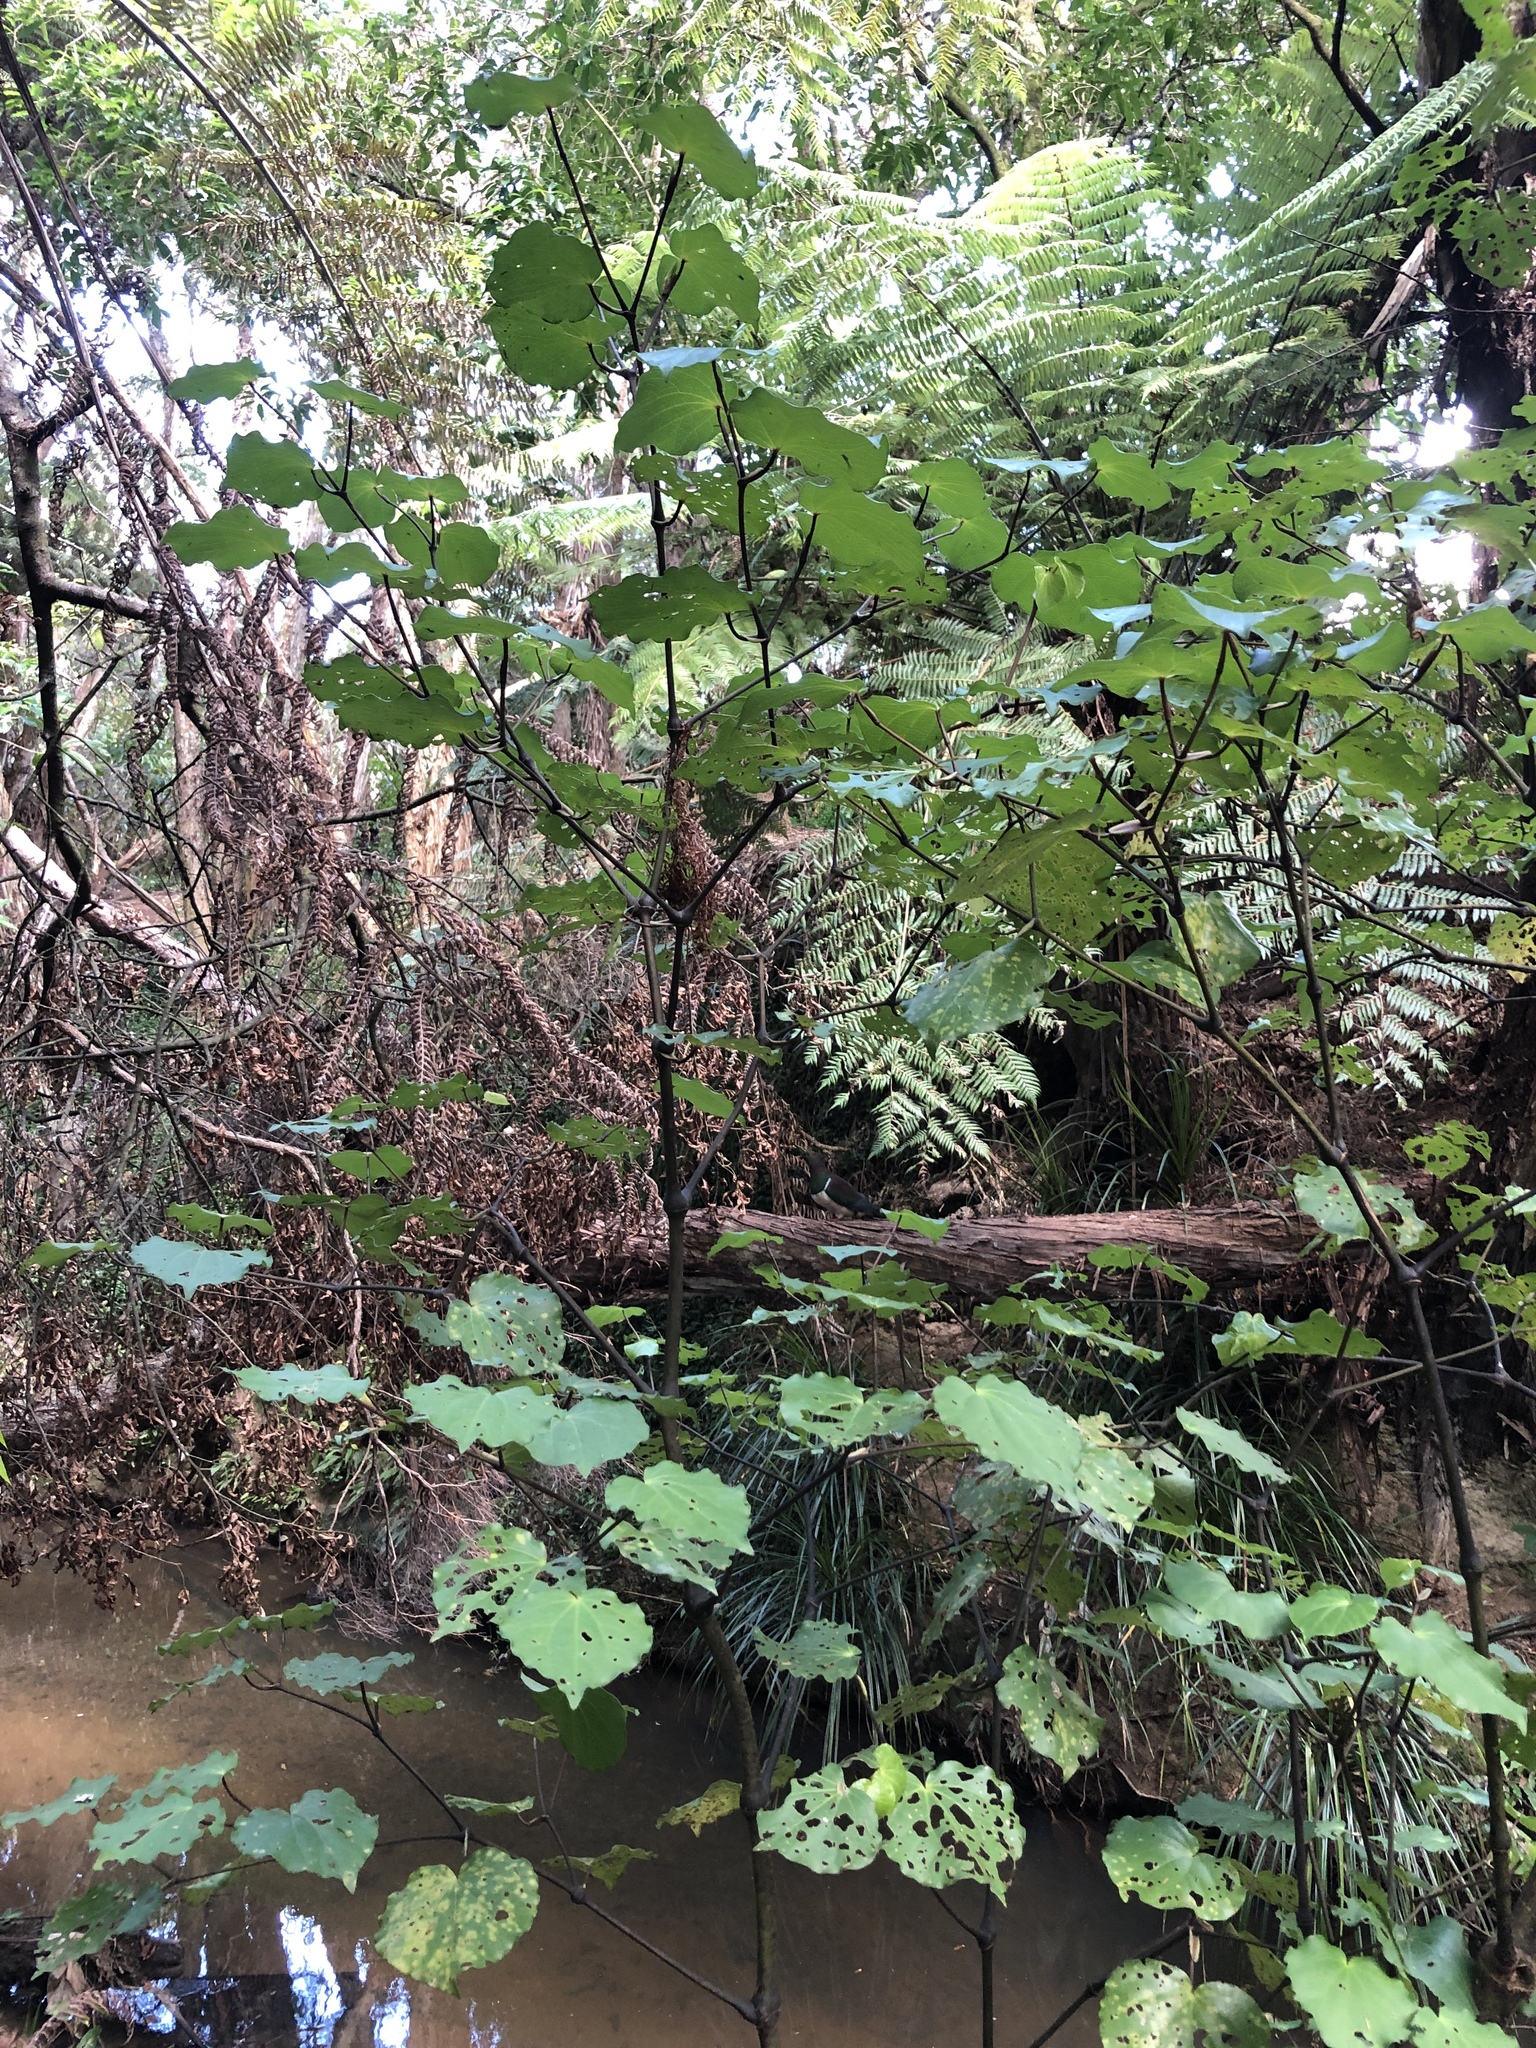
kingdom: Animalia
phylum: Chordata
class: Aves
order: Columbiformes
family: Columbidae
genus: Hemiphaga
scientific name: Hemiphaga novaeseelandiae
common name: New zealand pigeon
